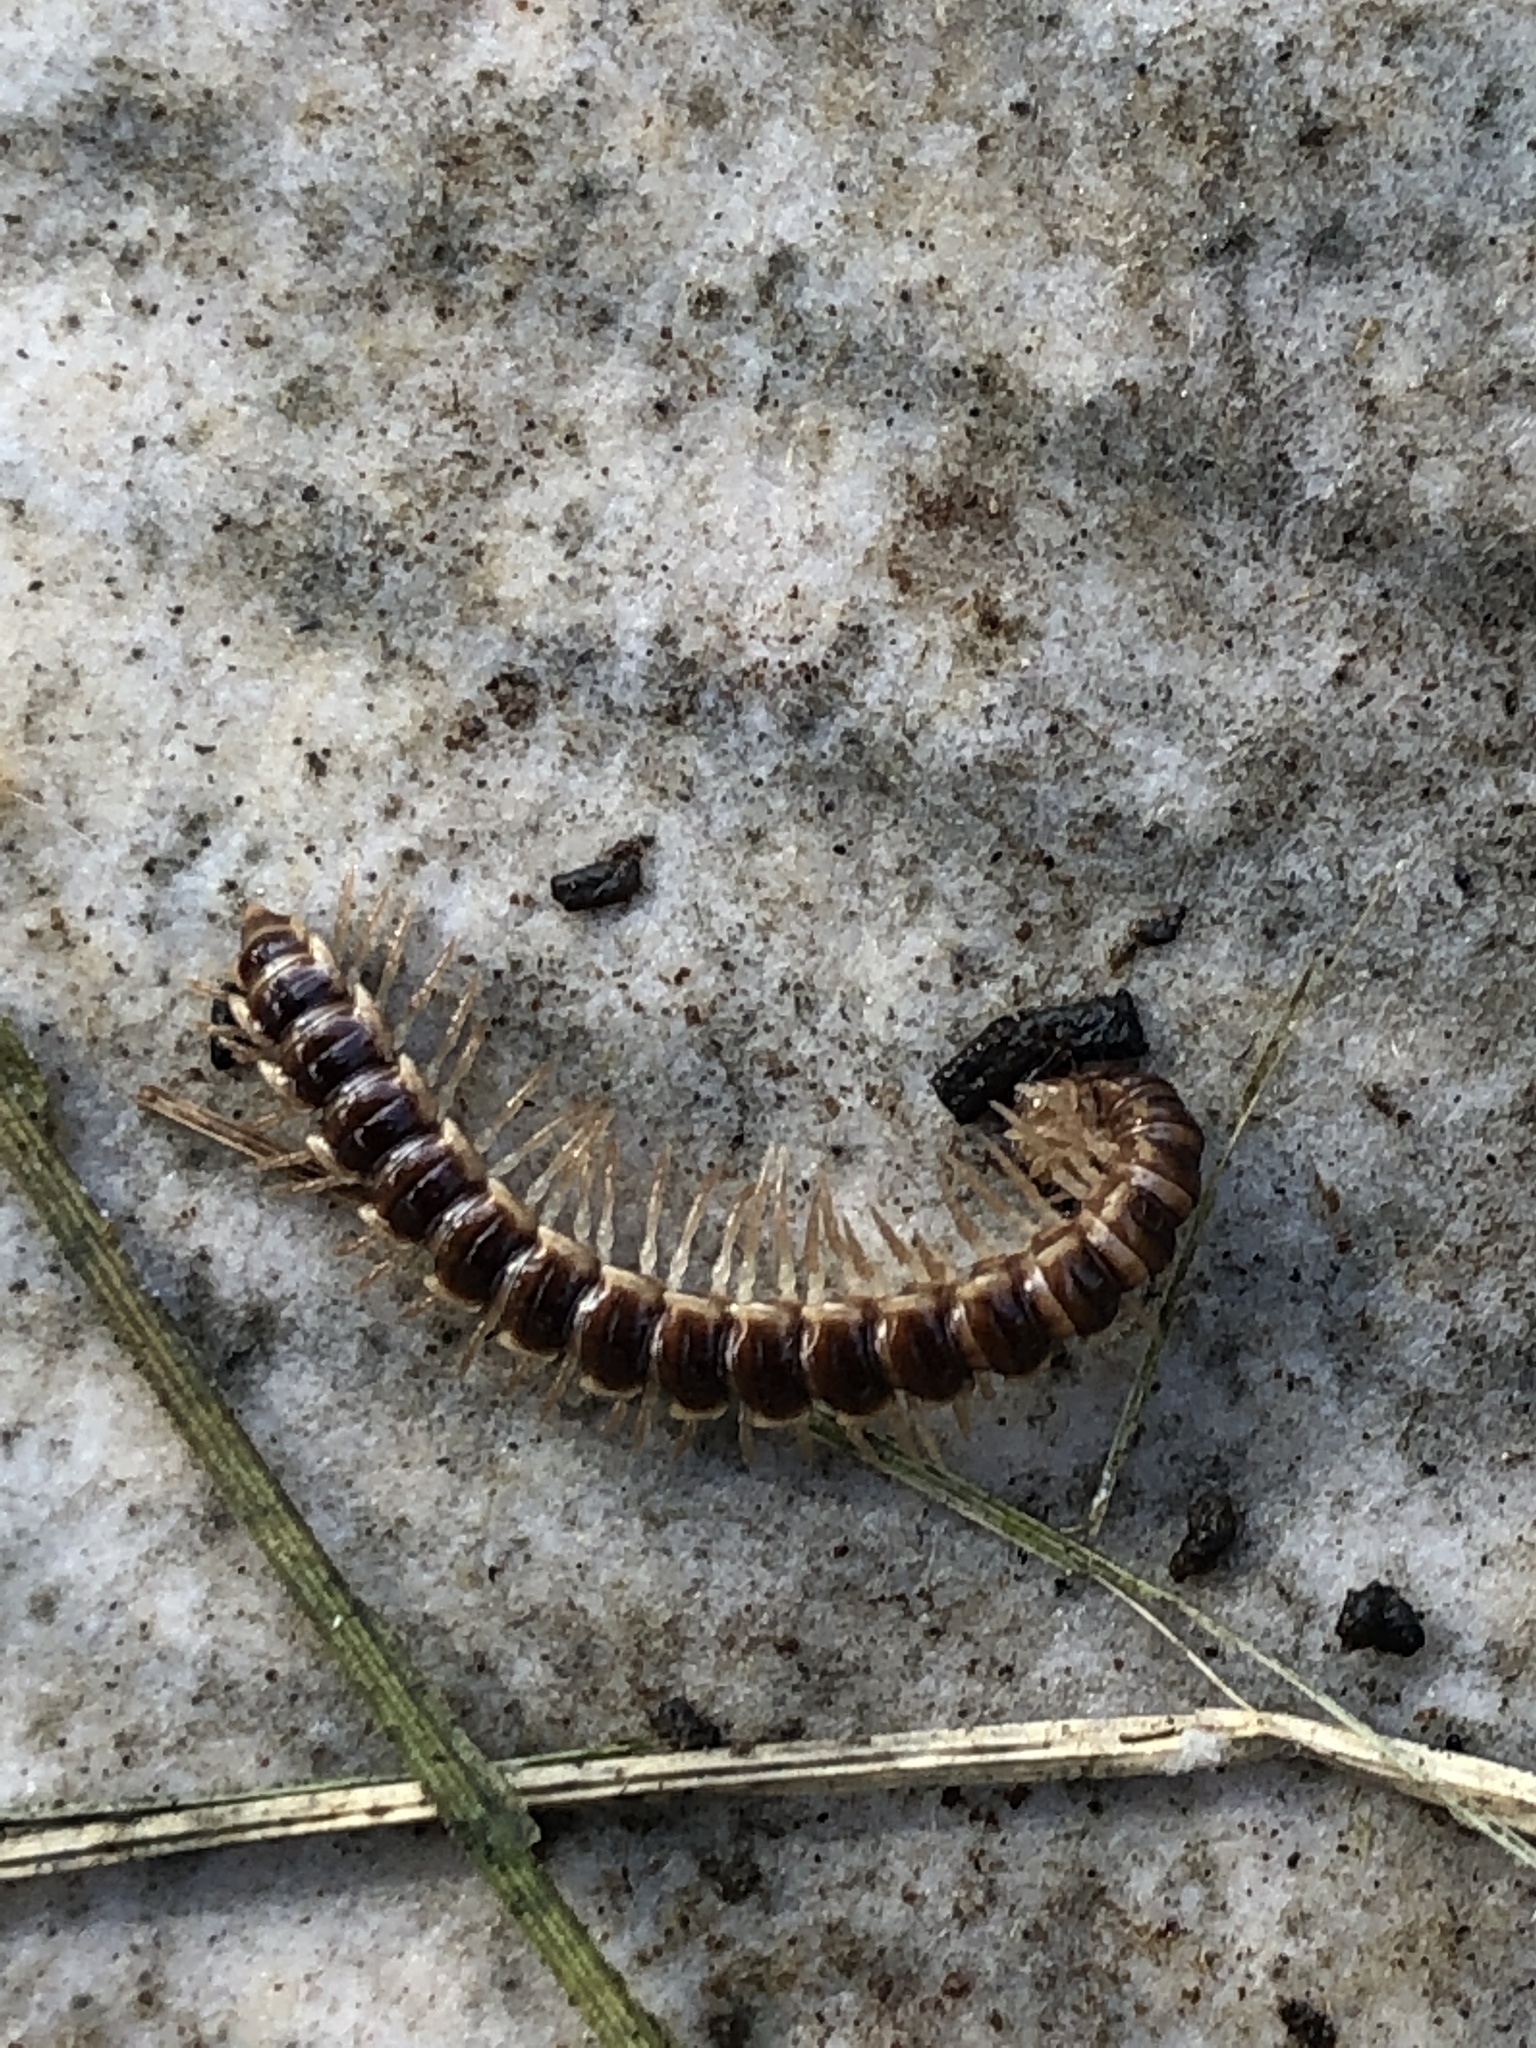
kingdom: Animalia
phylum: Arthropoda
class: Diplopoda
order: Polydesmida
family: Paradoxosomatidae
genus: Oxidus
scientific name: Oxidus gracilis
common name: Greenhouse millipede
